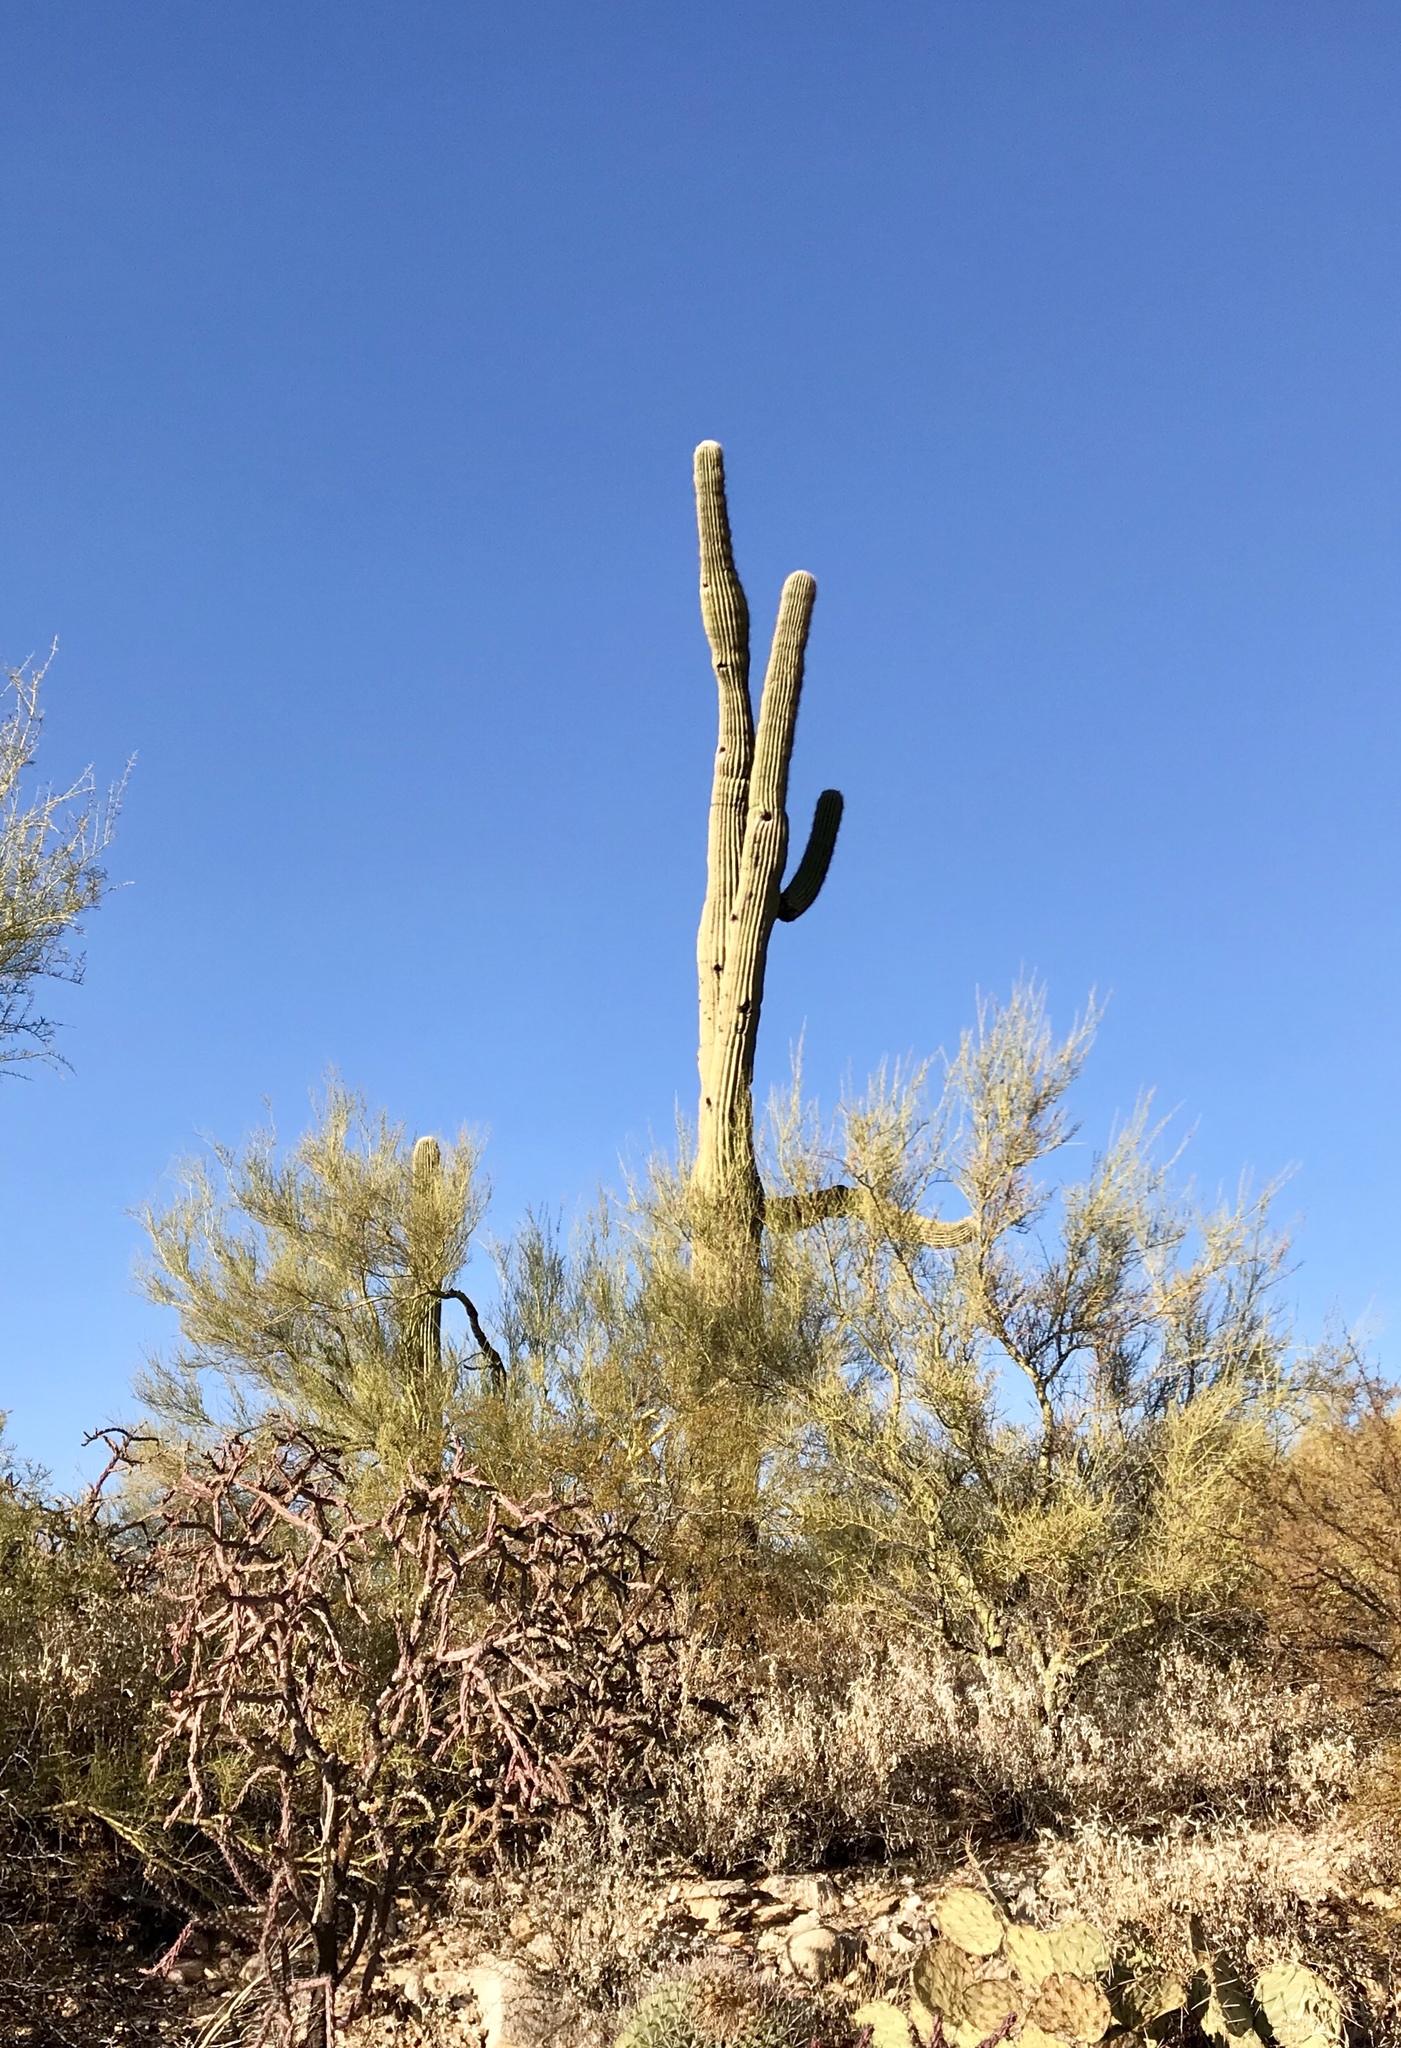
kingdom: Plantae
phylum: Tracheophyta
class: Magnoliopsida
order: Caryophyllales
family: Cactaceae
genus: Carnegiea
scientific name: Carnegiea gigantea
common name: Saguaro
